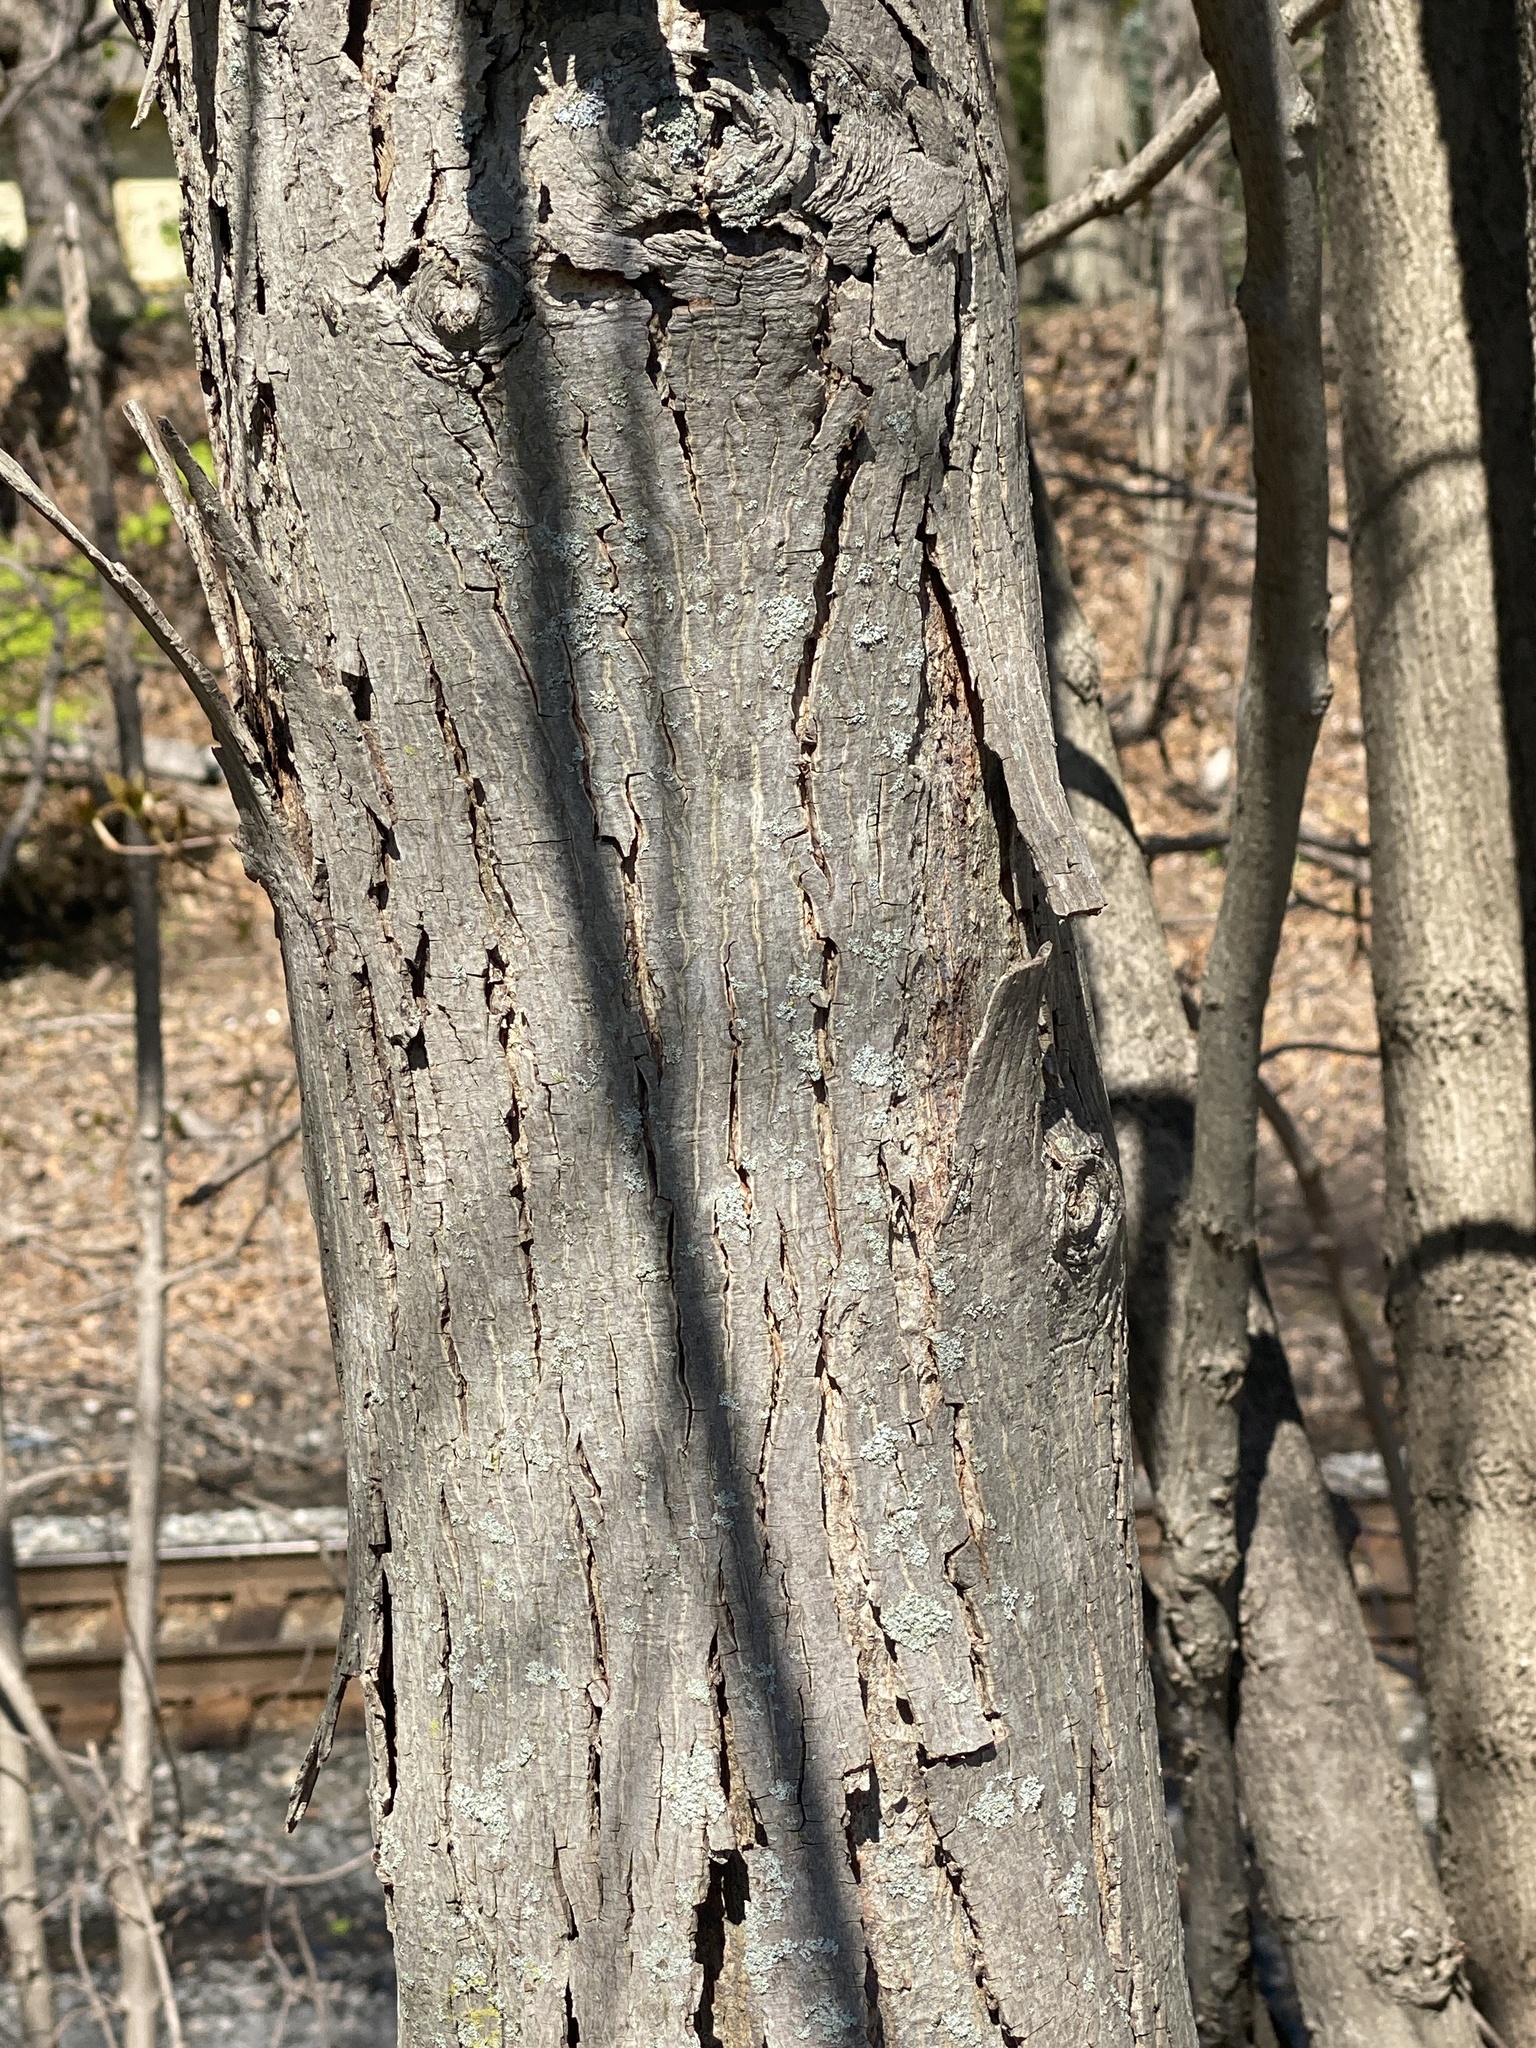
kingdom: Plantae
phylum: Tracheophyta
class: Magnoliopsida
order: Fagales
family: Juglandaceae
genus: Carya
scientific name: Carya ovata
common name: Shagbark hickory
